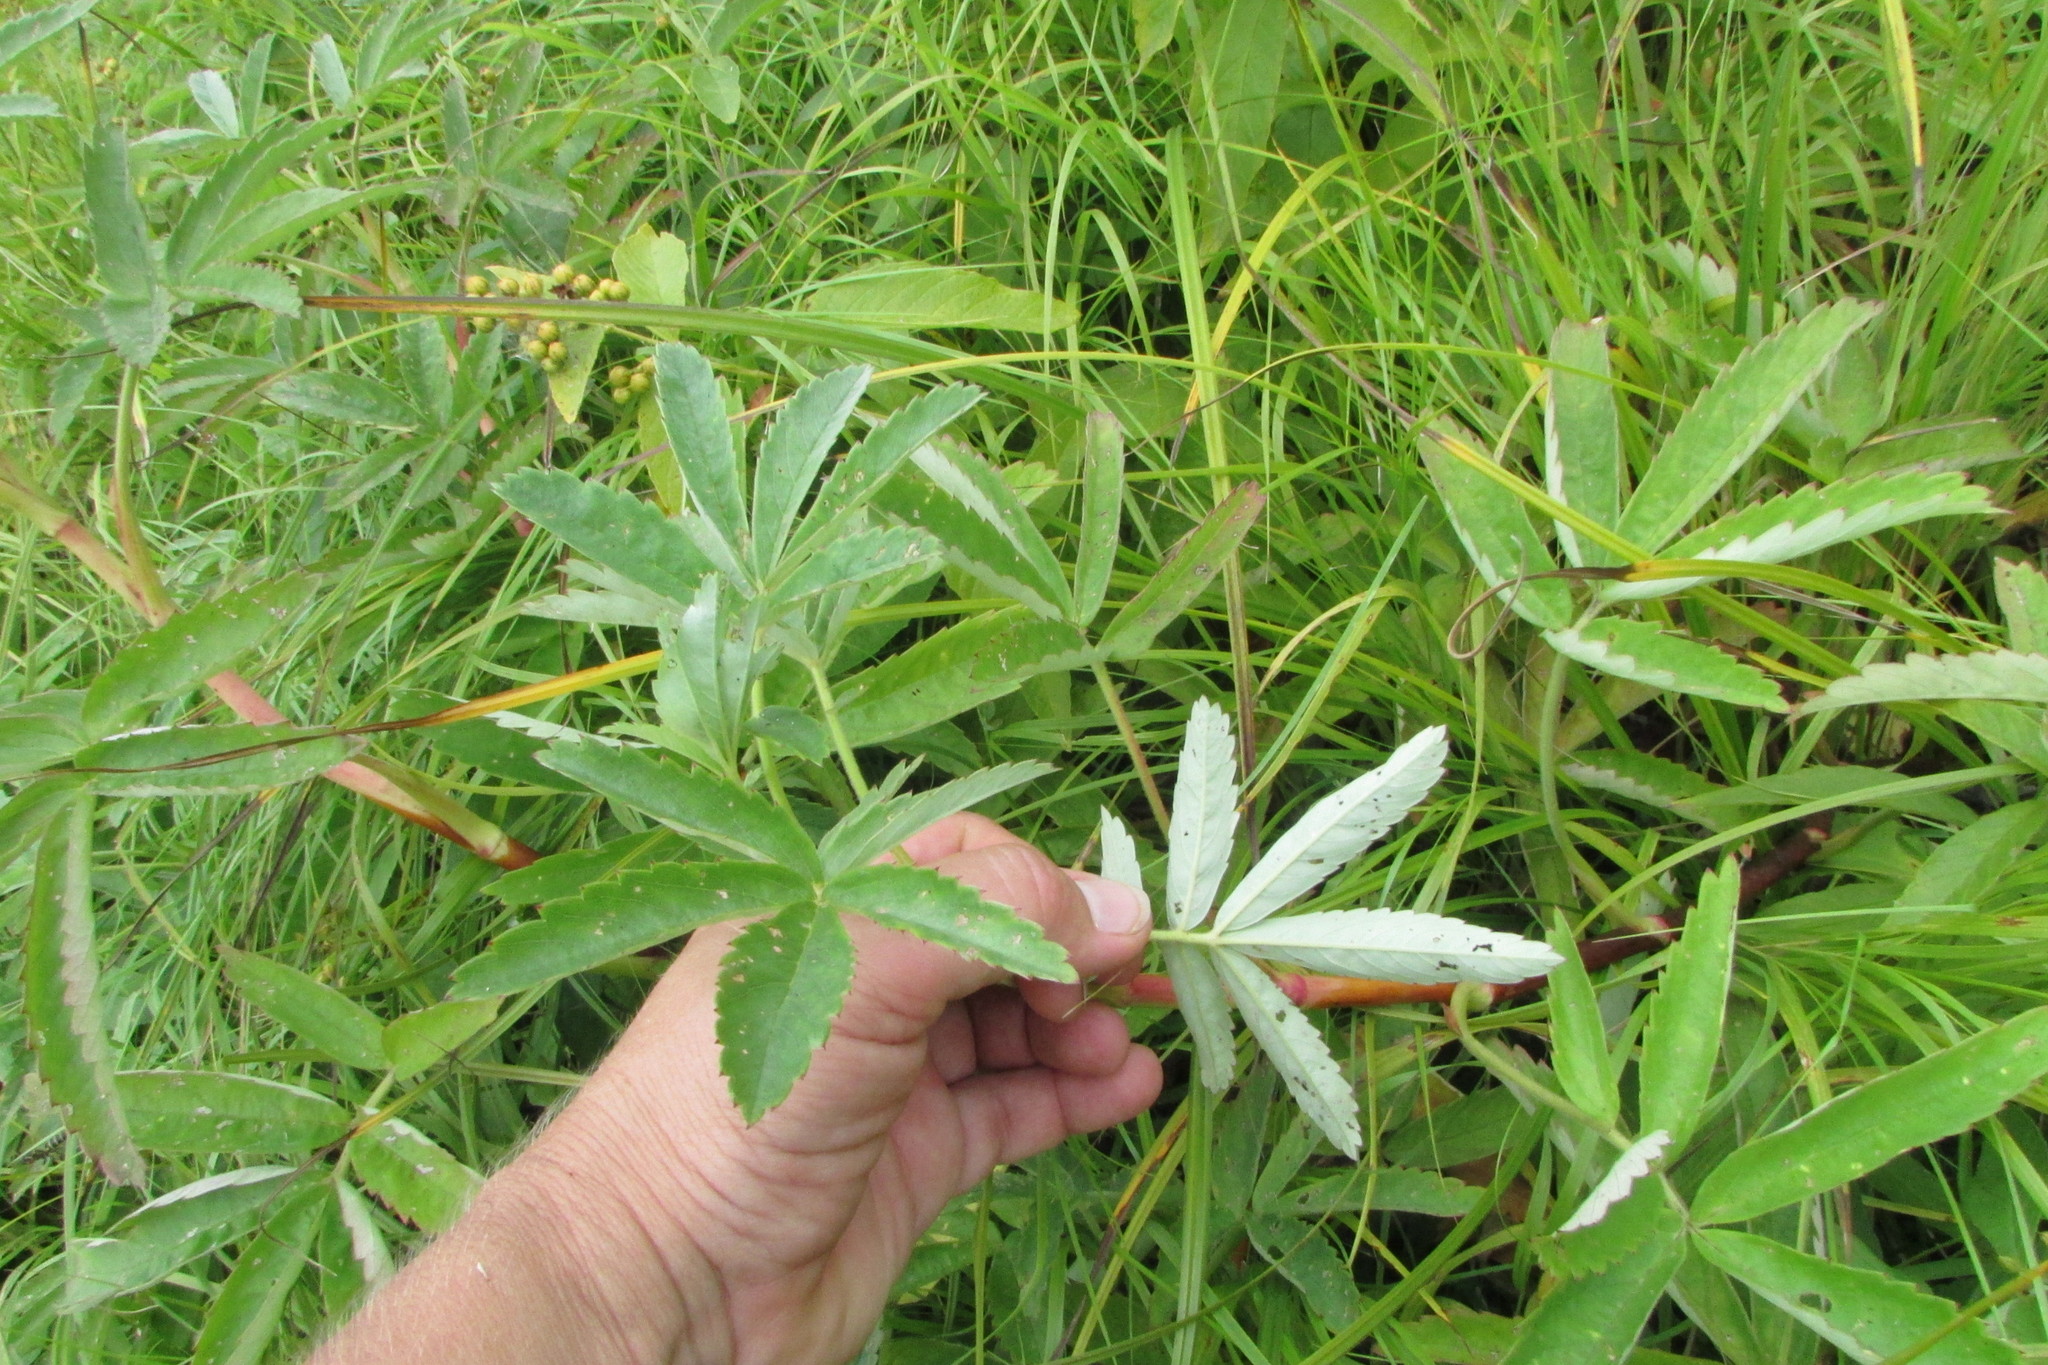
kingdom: Plantae
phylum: Tracheophyta
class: Magnoliopsida
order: Rosales
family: Rosaceae
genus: Comarum
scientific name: Comarum palustre
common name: Marsh cinquefoil
